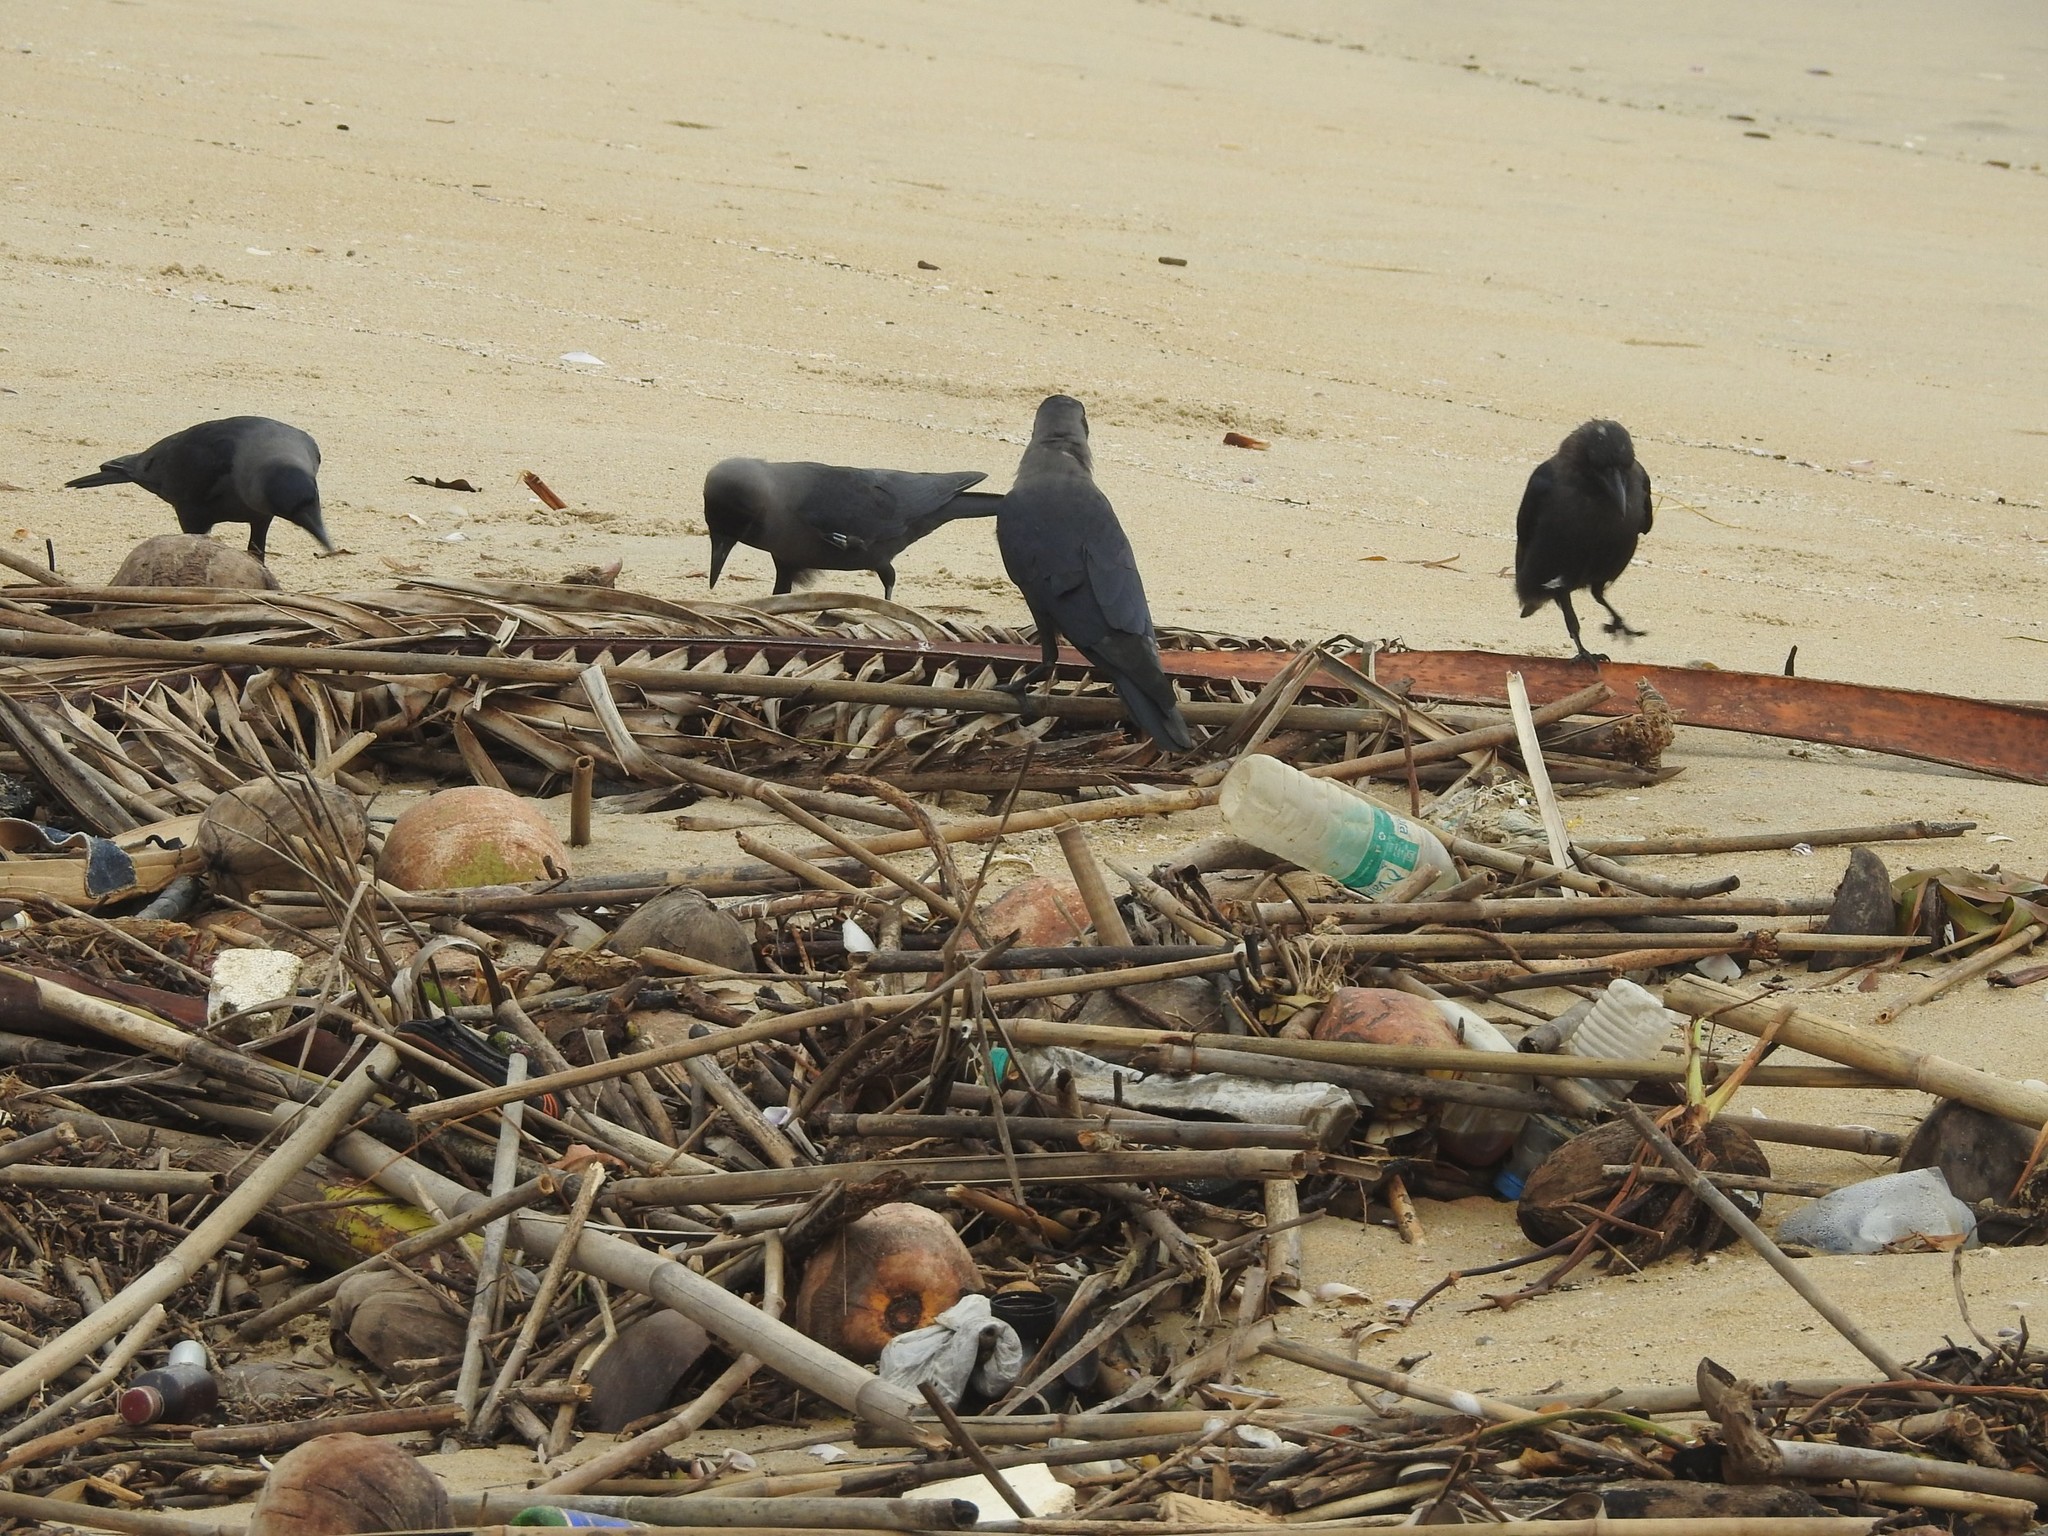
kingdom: Animalia
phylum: Chordata
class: Aves
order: Passeriformes
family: Corvidae
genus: Corvus
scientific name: Corvus splendens
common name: House crow
